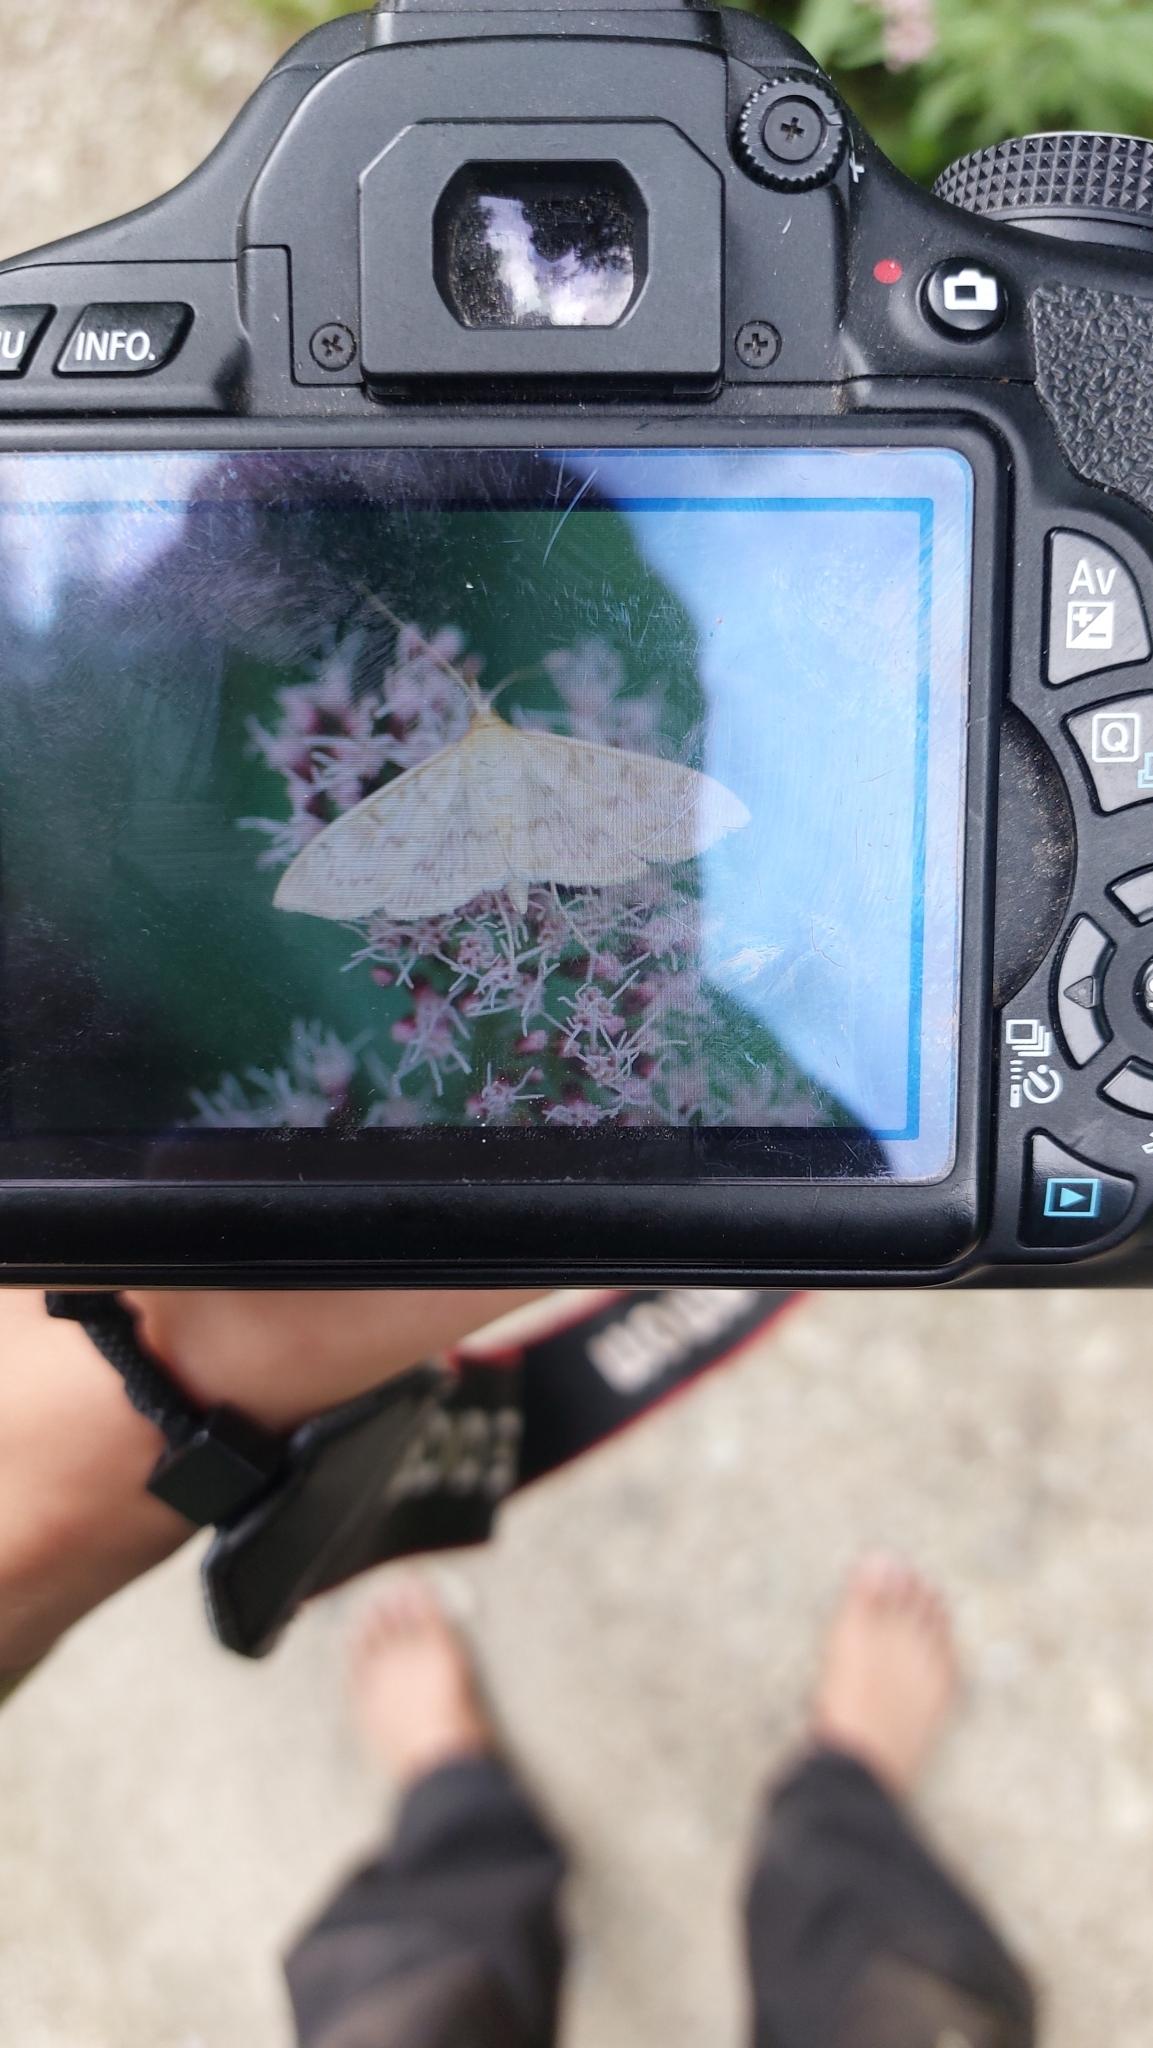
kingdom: Animalia
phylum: Arthropoda
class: Insecta
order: Lepidoptera
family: Crambidae
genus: Patania
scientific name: Patania ruralis
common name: Mother of pearl
